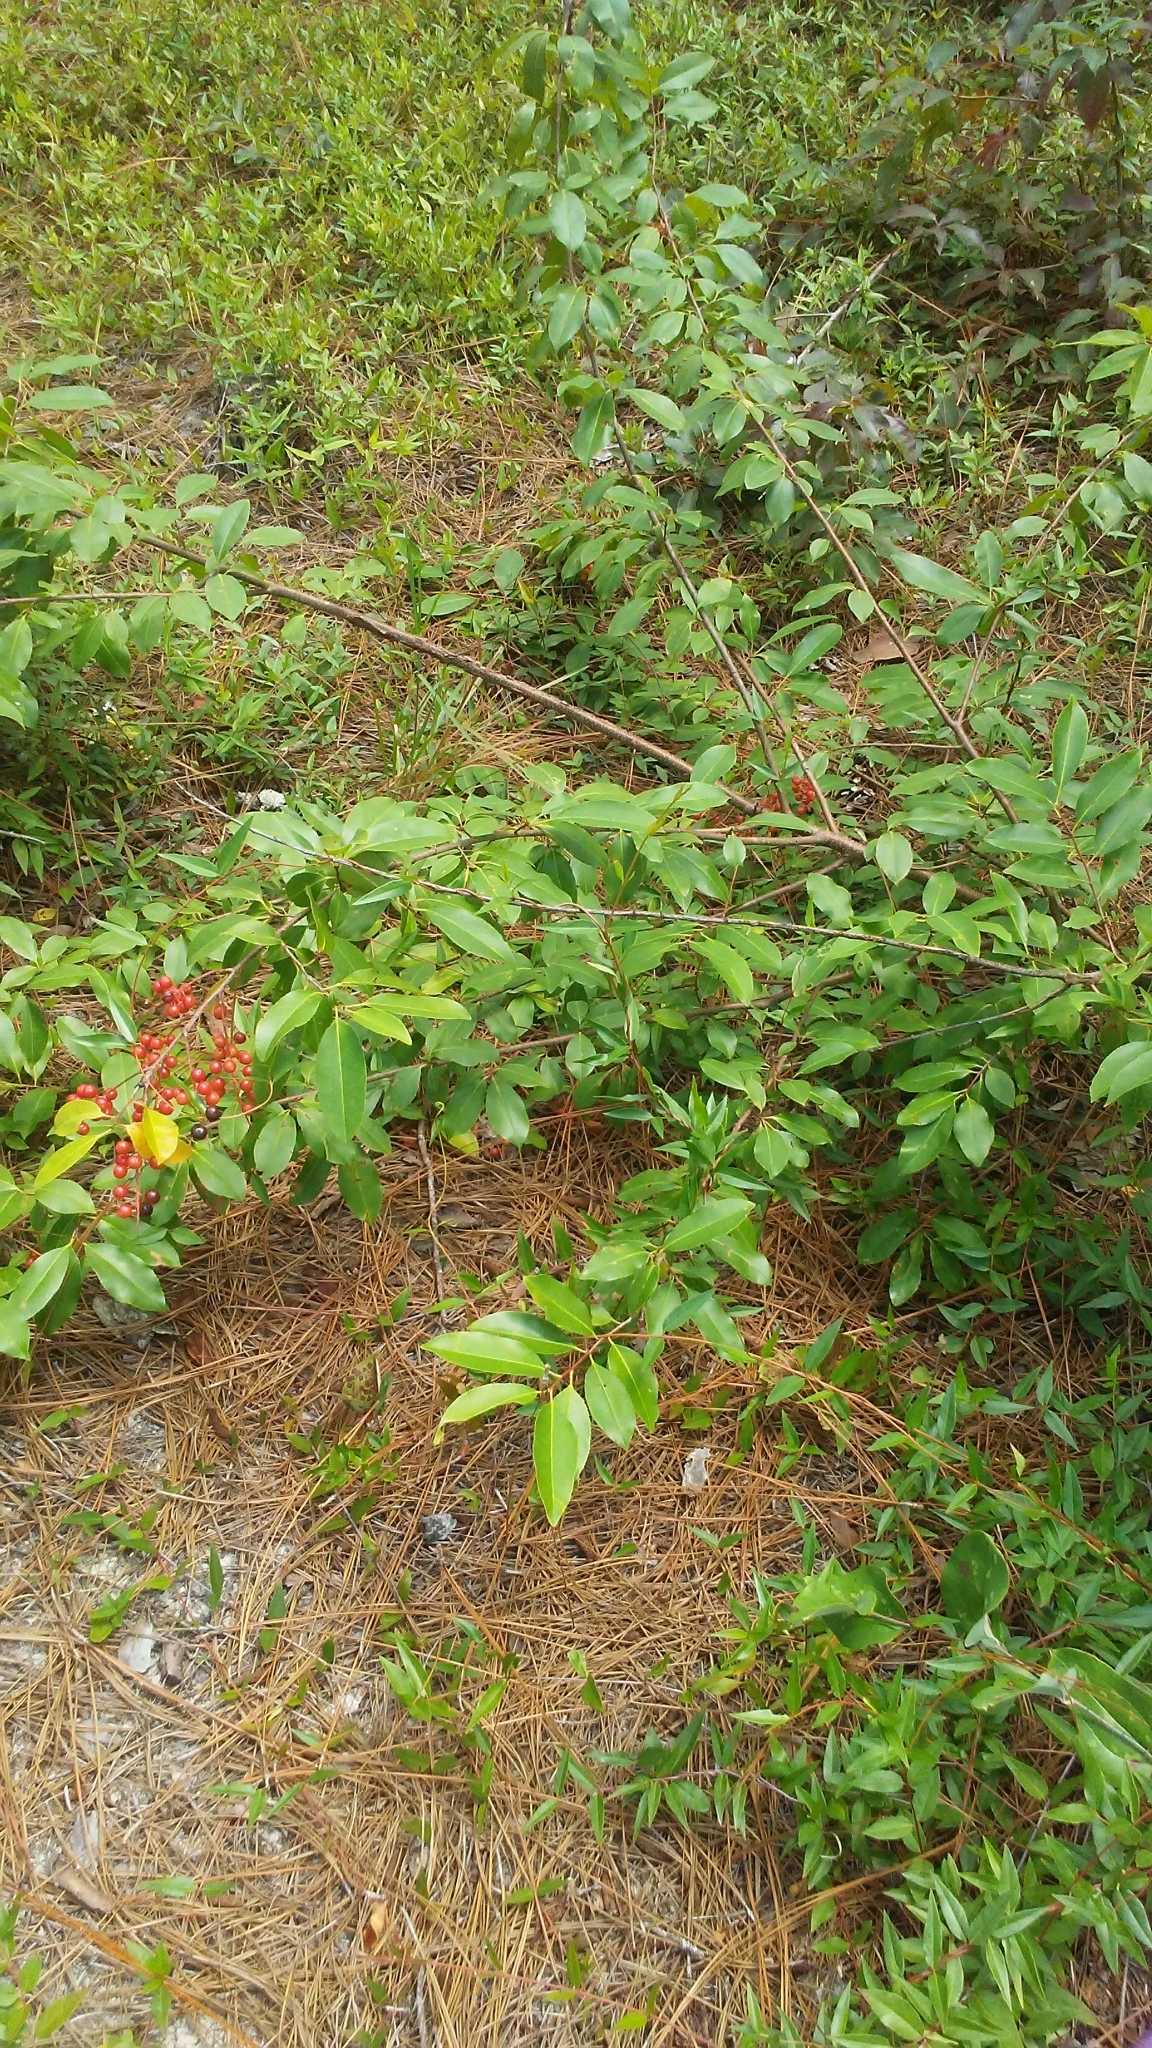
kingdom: Plantae
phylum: Tracheophyta
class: Magnoliopsida
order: Rosales
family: Rosaceae
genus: Prunus
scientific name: Prunus serotina
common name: Black cherry
